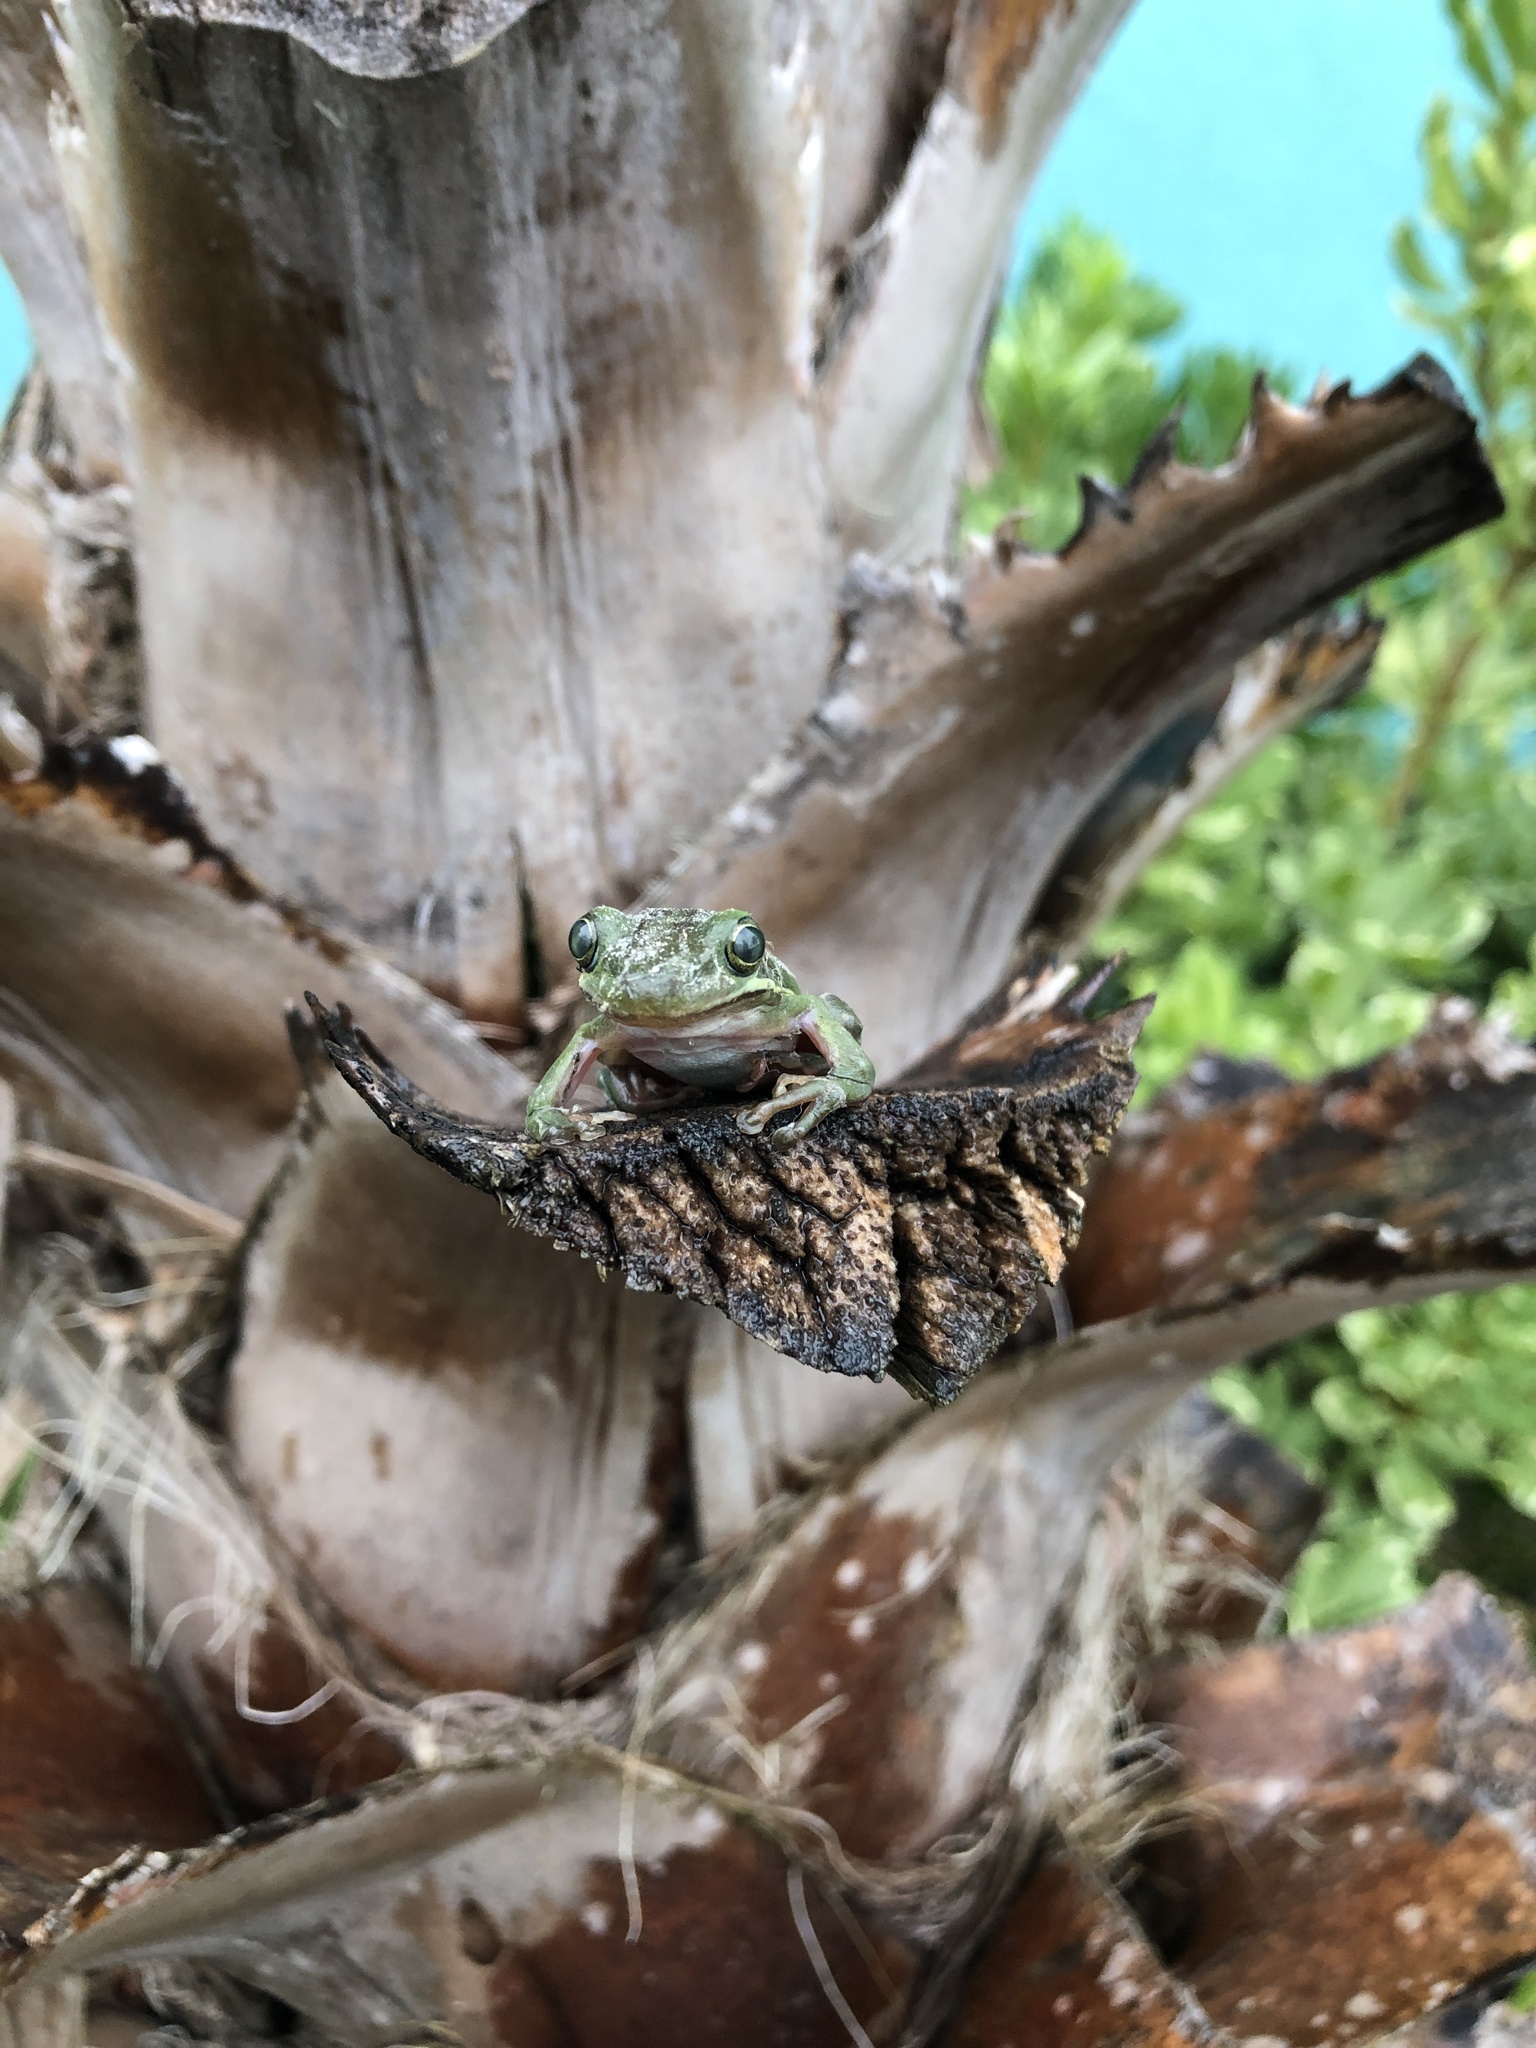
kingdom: Animalia
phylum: Chordata
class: Amphibia
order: Anura
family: Hylidae
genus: Dryophytes
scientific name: Dryophytes cinereus
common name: Green treefrog
